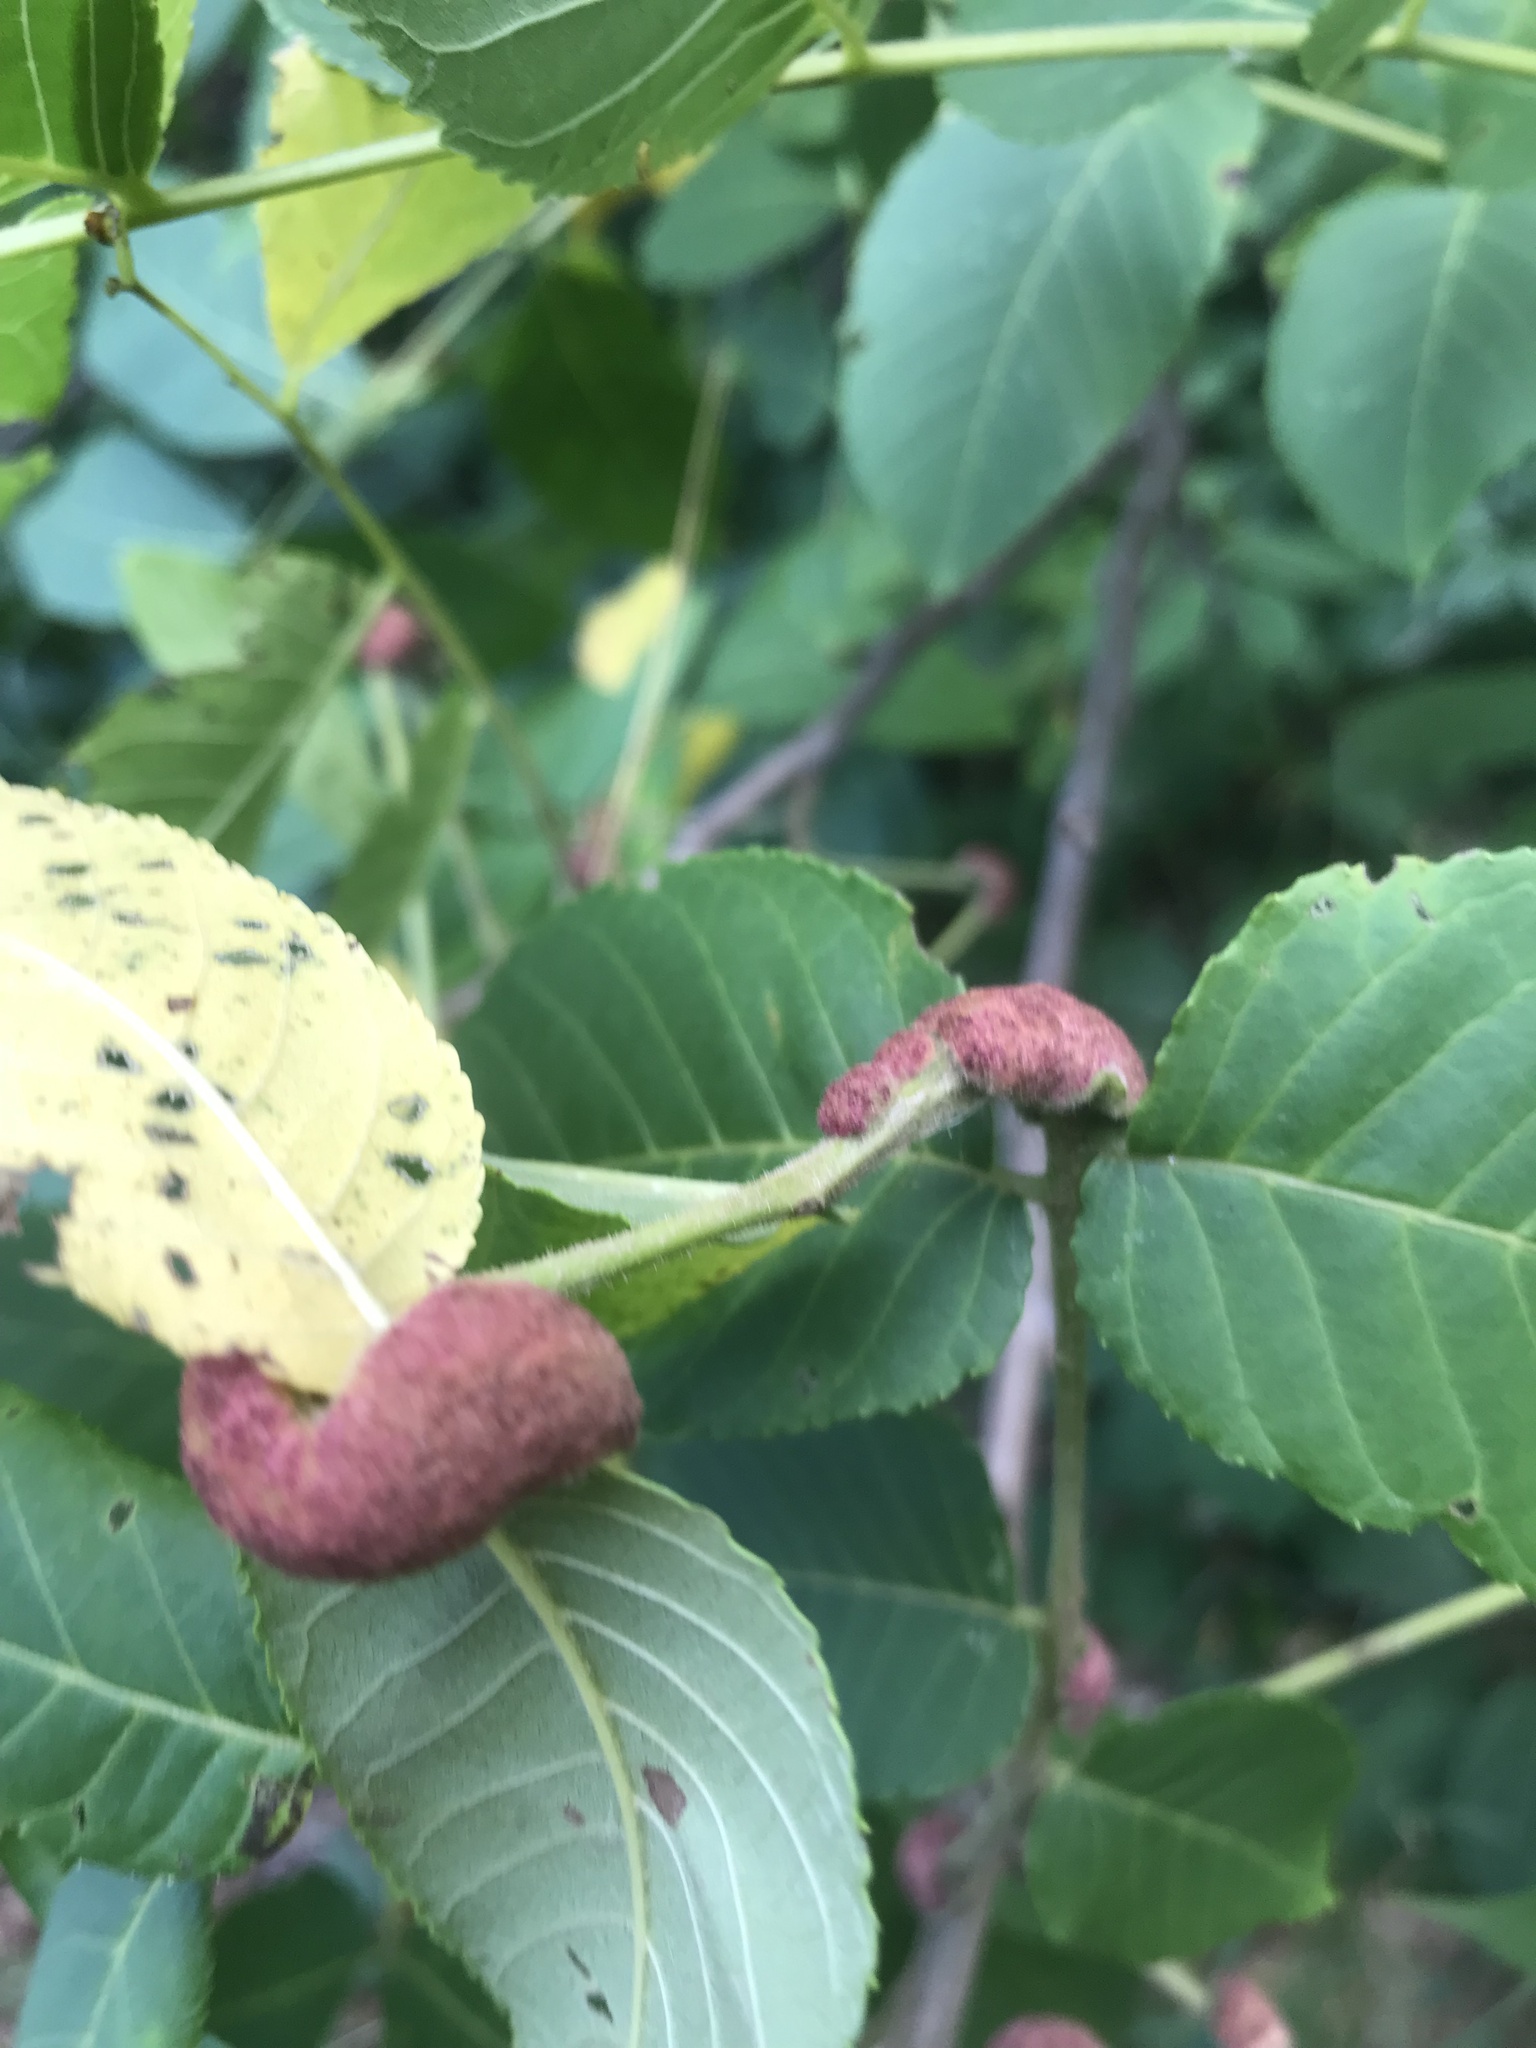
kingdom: Animalia
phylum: Arthropoda
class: Arachnida
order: Trombidiformes
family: Eriophyidae
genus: Aceria
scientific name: Aceria
